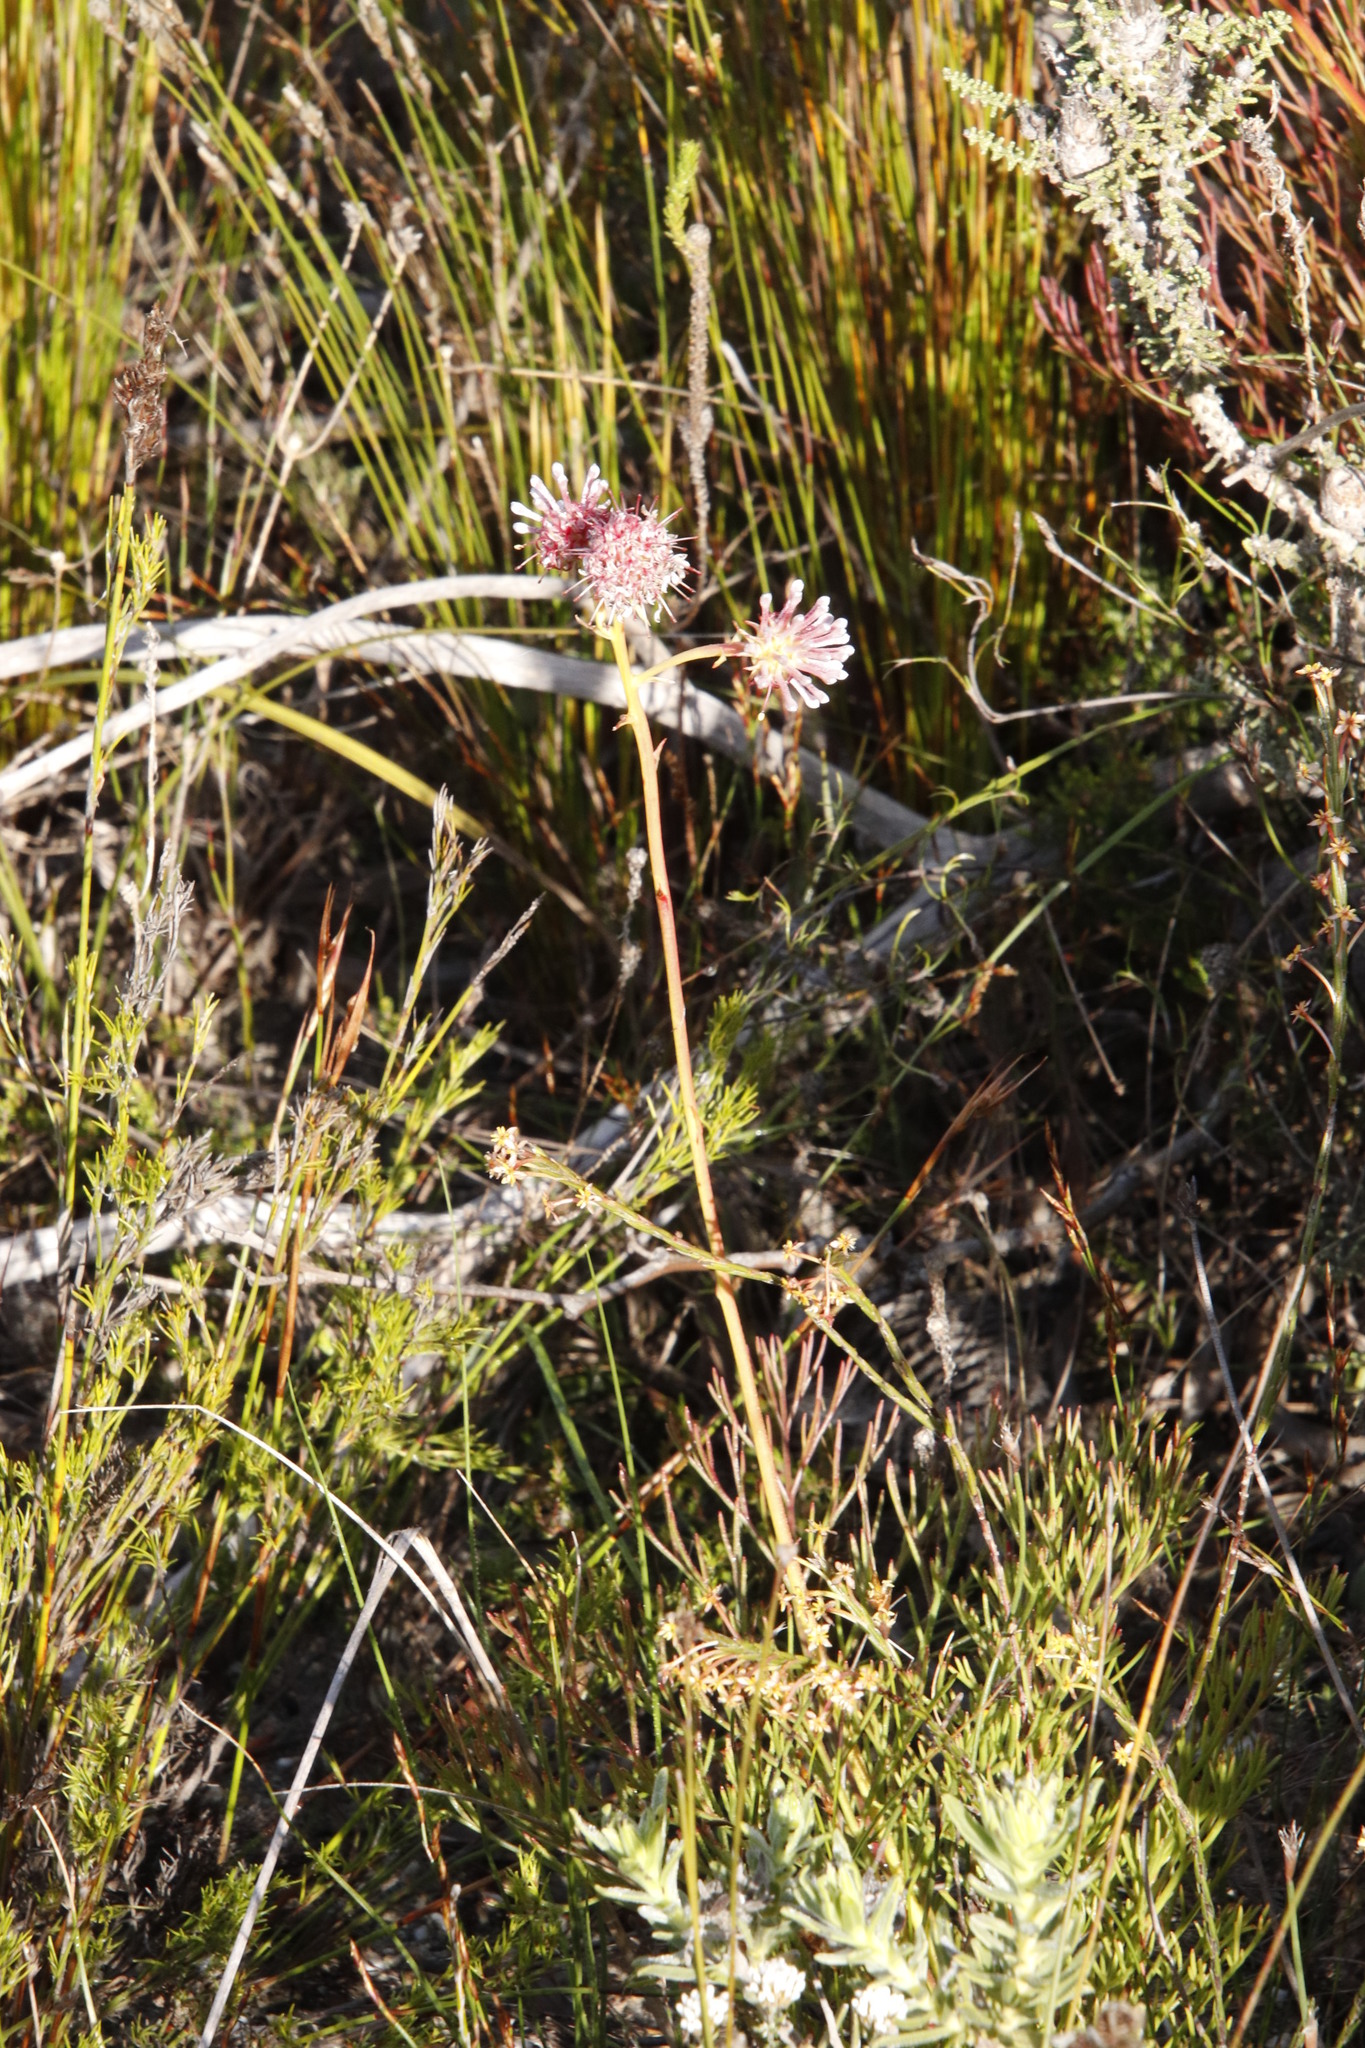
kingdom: Plantae
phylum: Tracheophyta
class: Magnoliopsida
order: Proteales
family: Proteaceae
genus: Serruria
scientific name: Serruria elongata
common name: Long-stalk spiderhead
